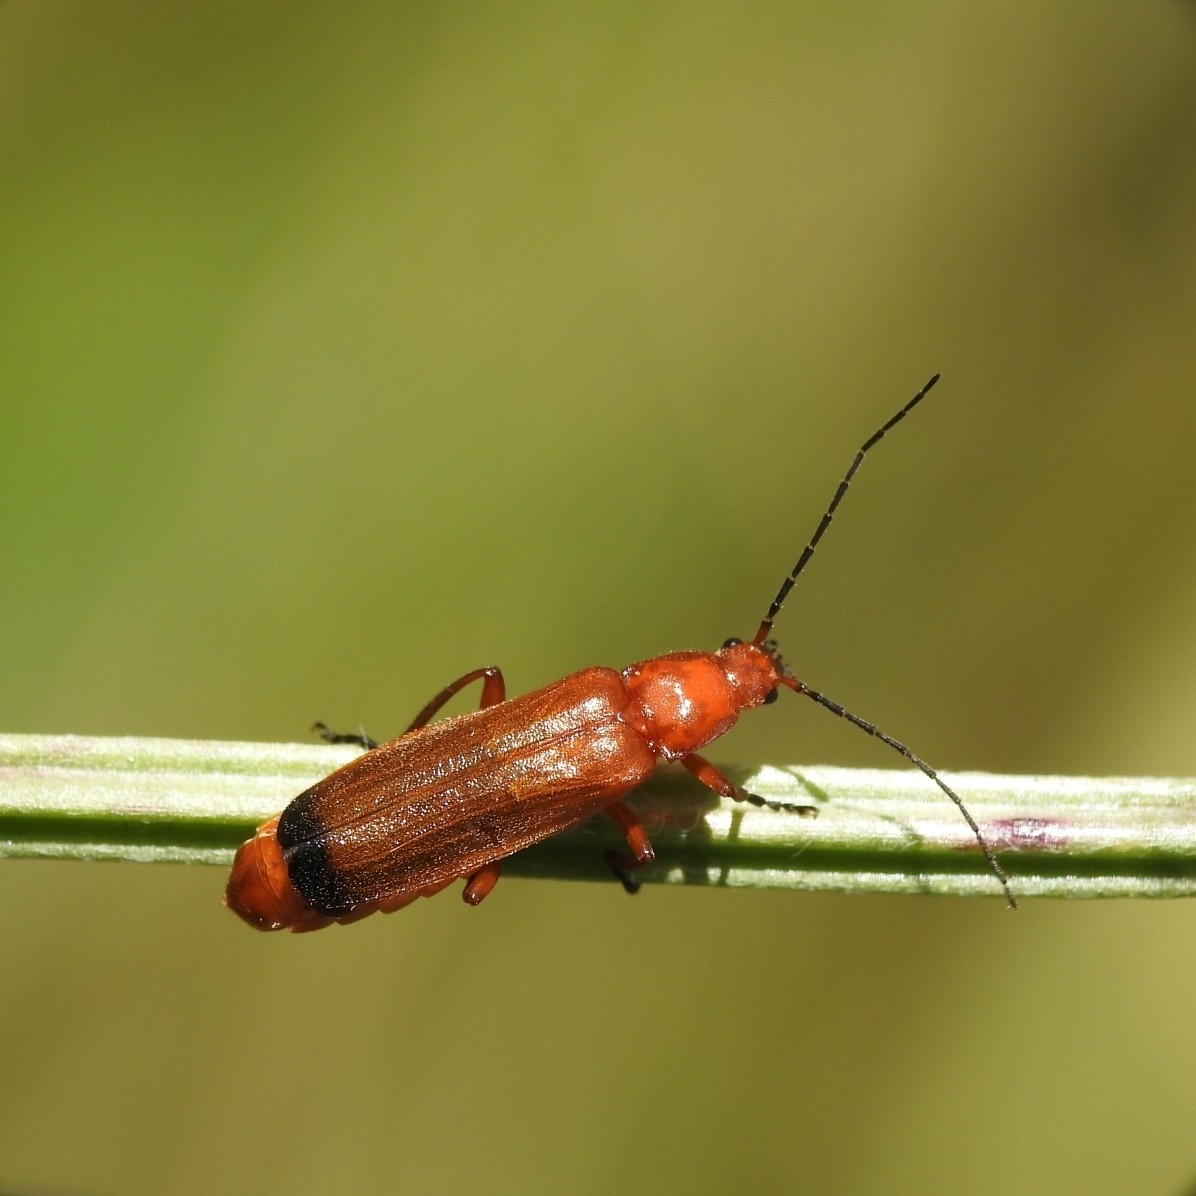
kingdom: Animalia
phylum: Arthropoda
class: Insecta
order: Coleoptera
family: Cantharidae
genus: Rhagonycha
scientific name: Rhagonycha fulva
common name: Common red soldier beetle
